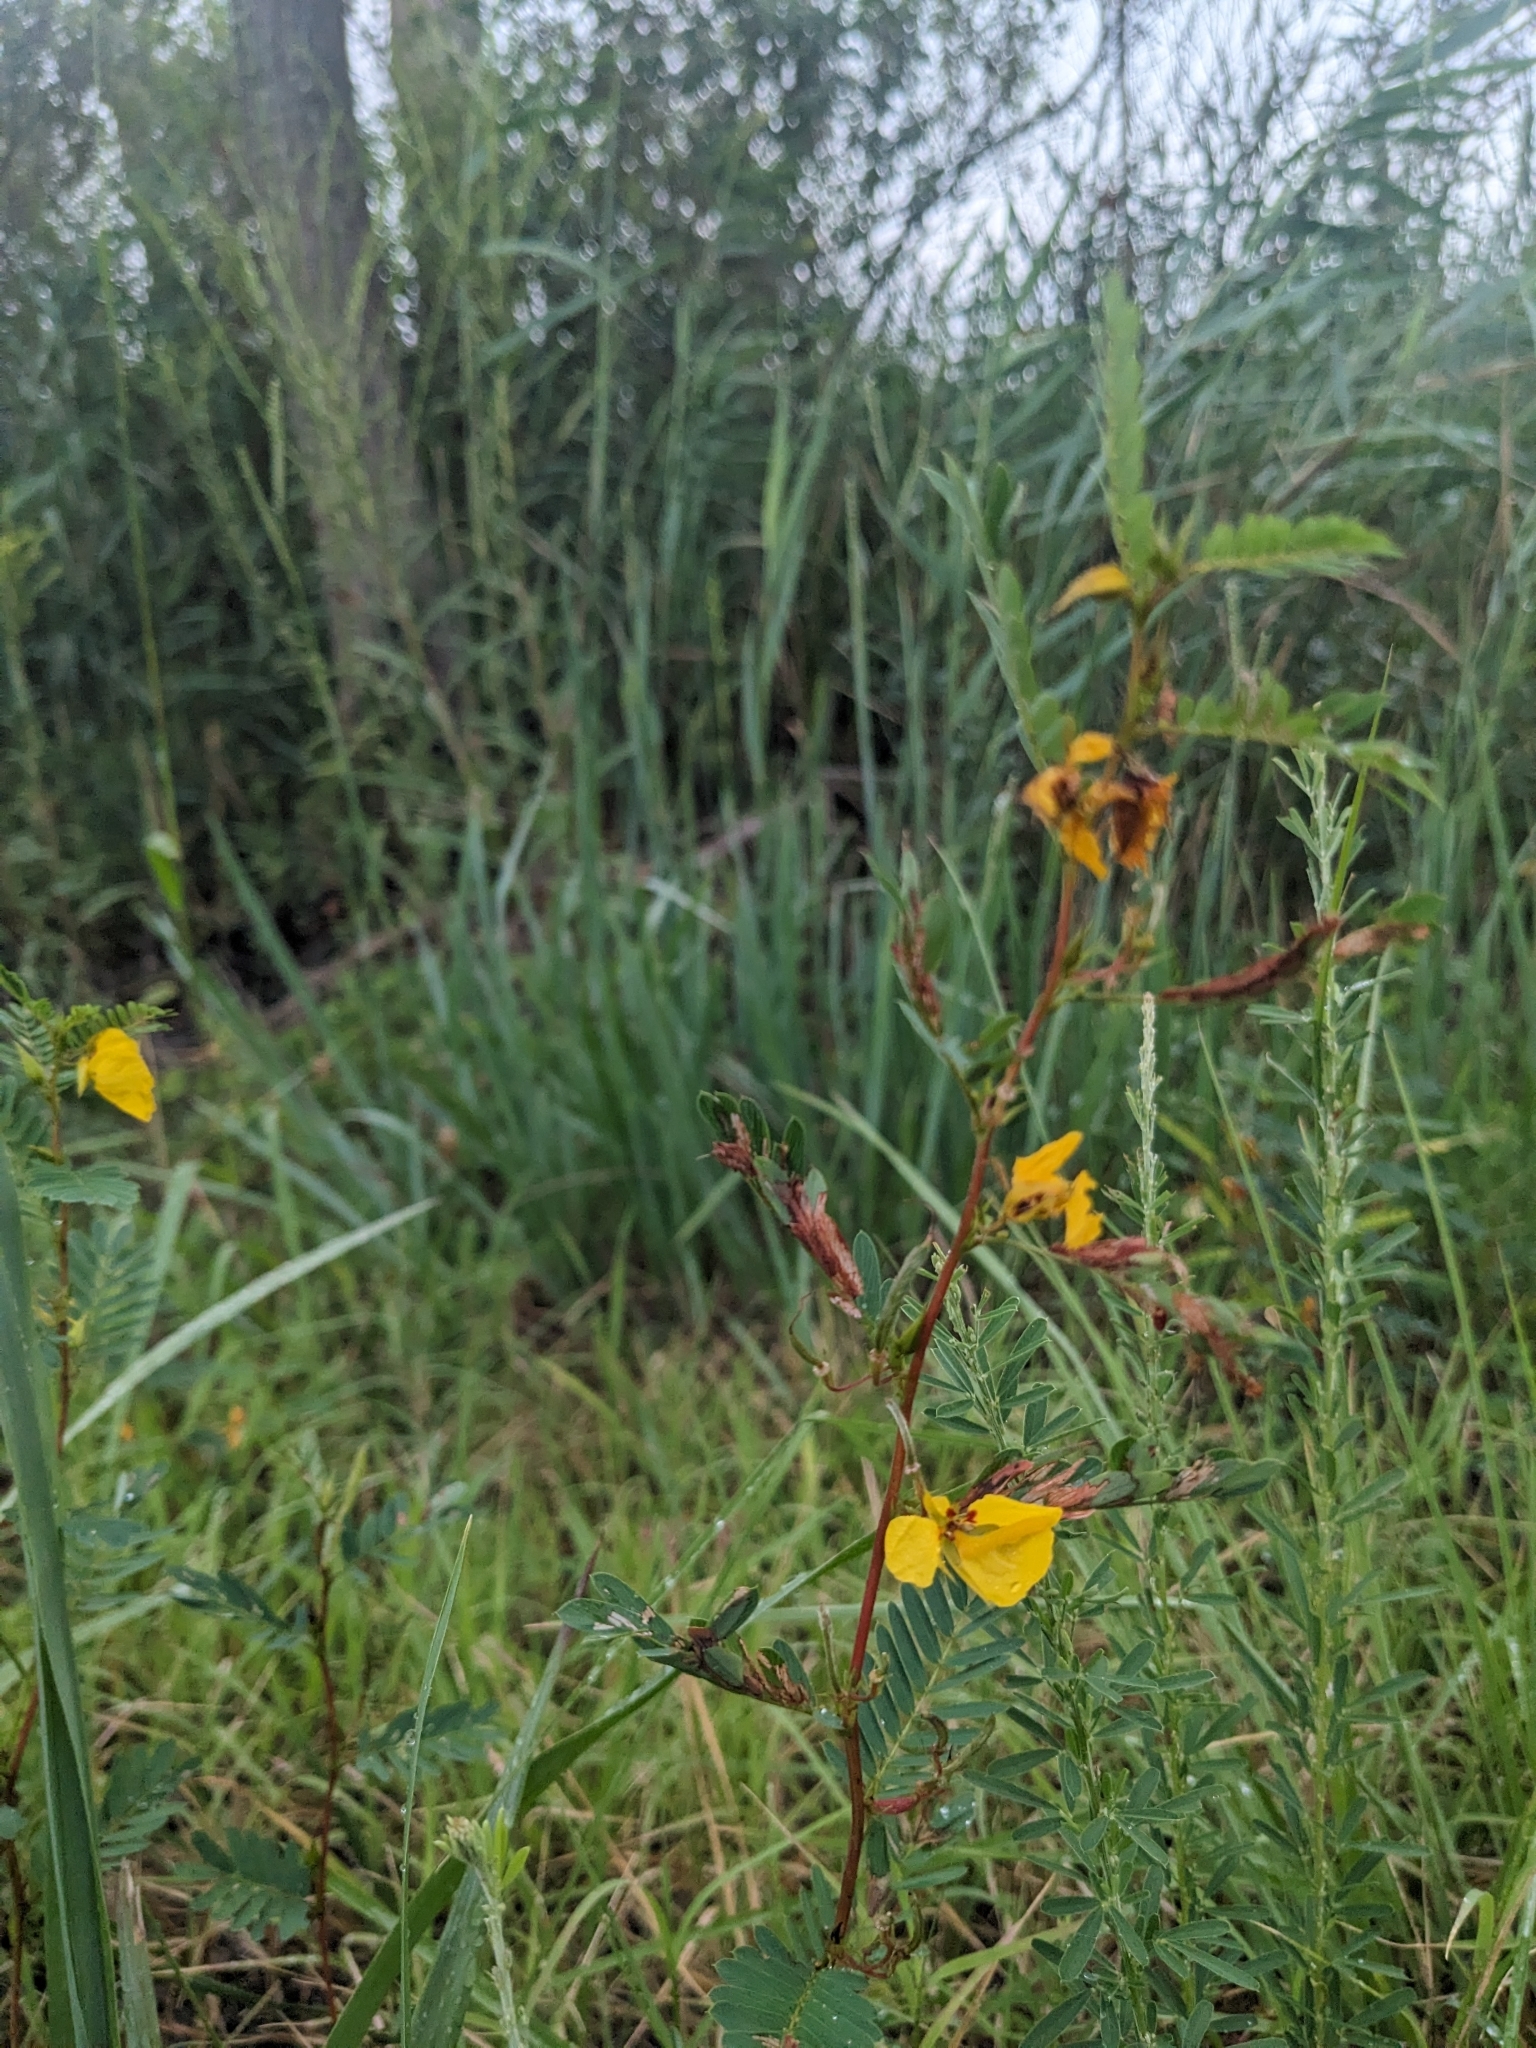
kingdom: Plantae
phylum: Tracheophyta
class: Magnoliopsida
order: Fabales
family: Fabaceae
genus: Chamaecrista
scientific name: Chamaecrista fasciculata
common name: Golden cassia
